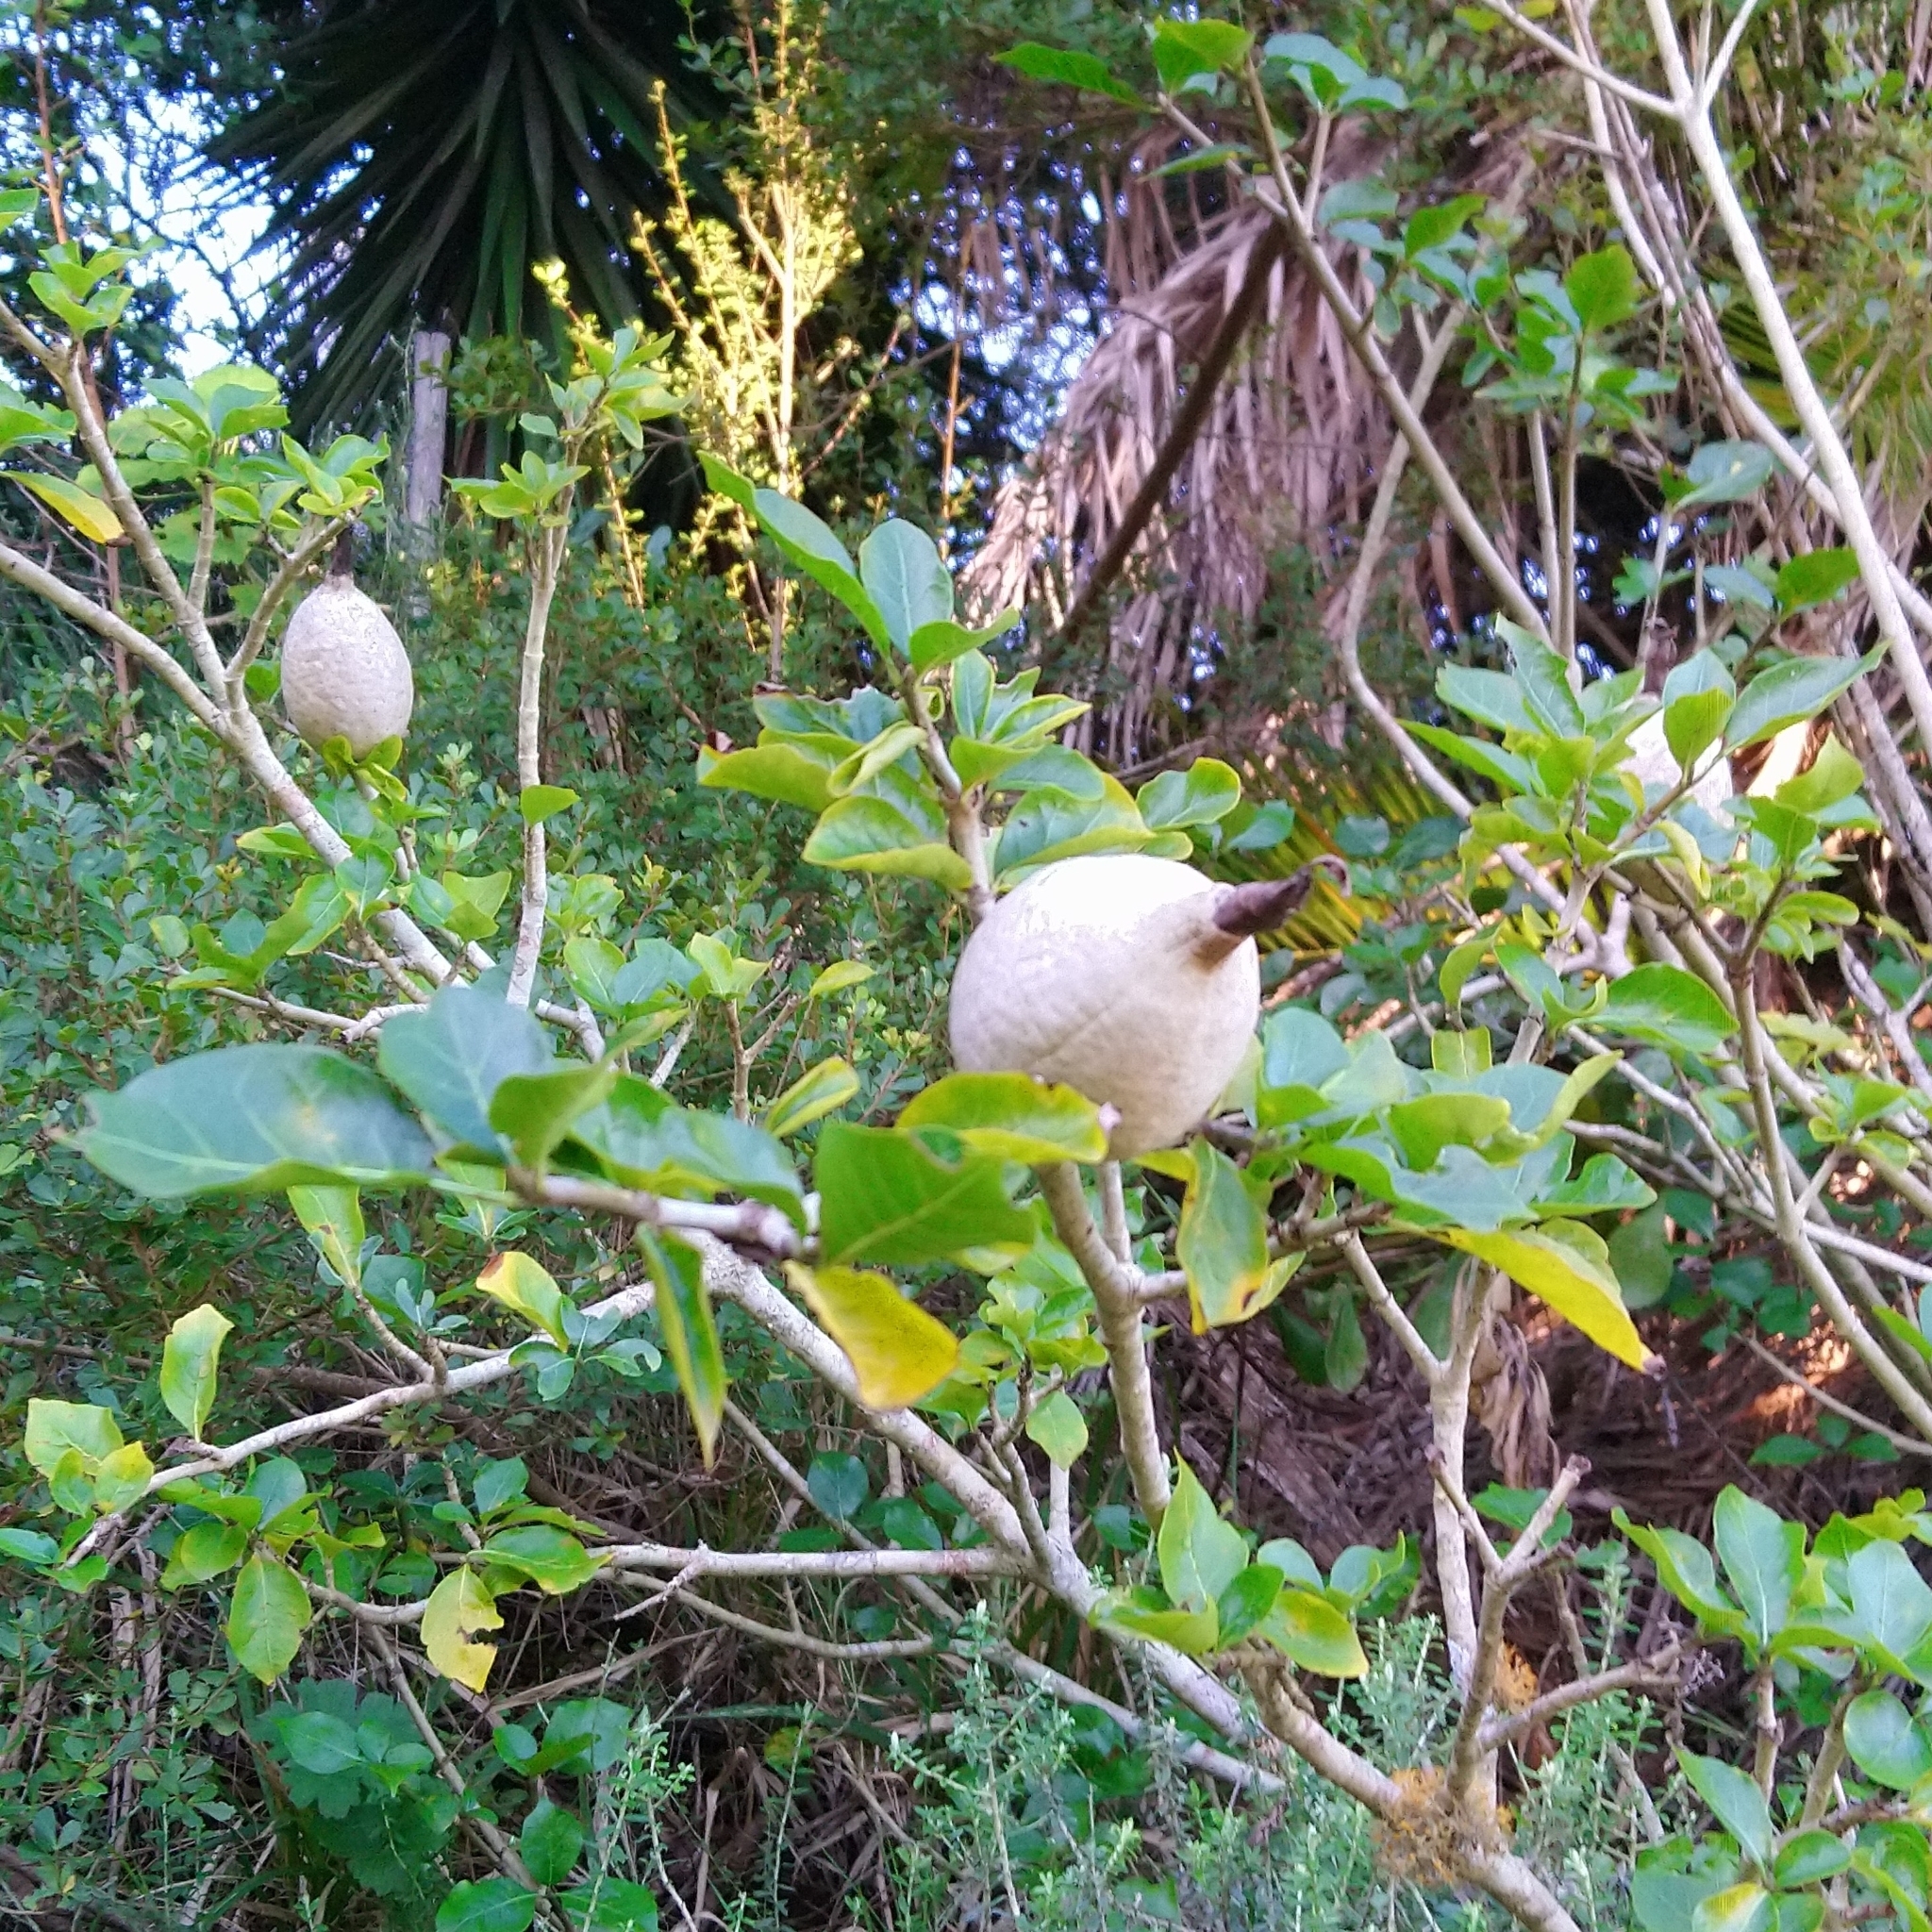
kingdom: Plantae
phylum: Tracheophyta
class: Magnoliopsida
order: Gentianales
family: Rubiaceae
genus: Gardenia
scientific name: Gardenia thunbergia
